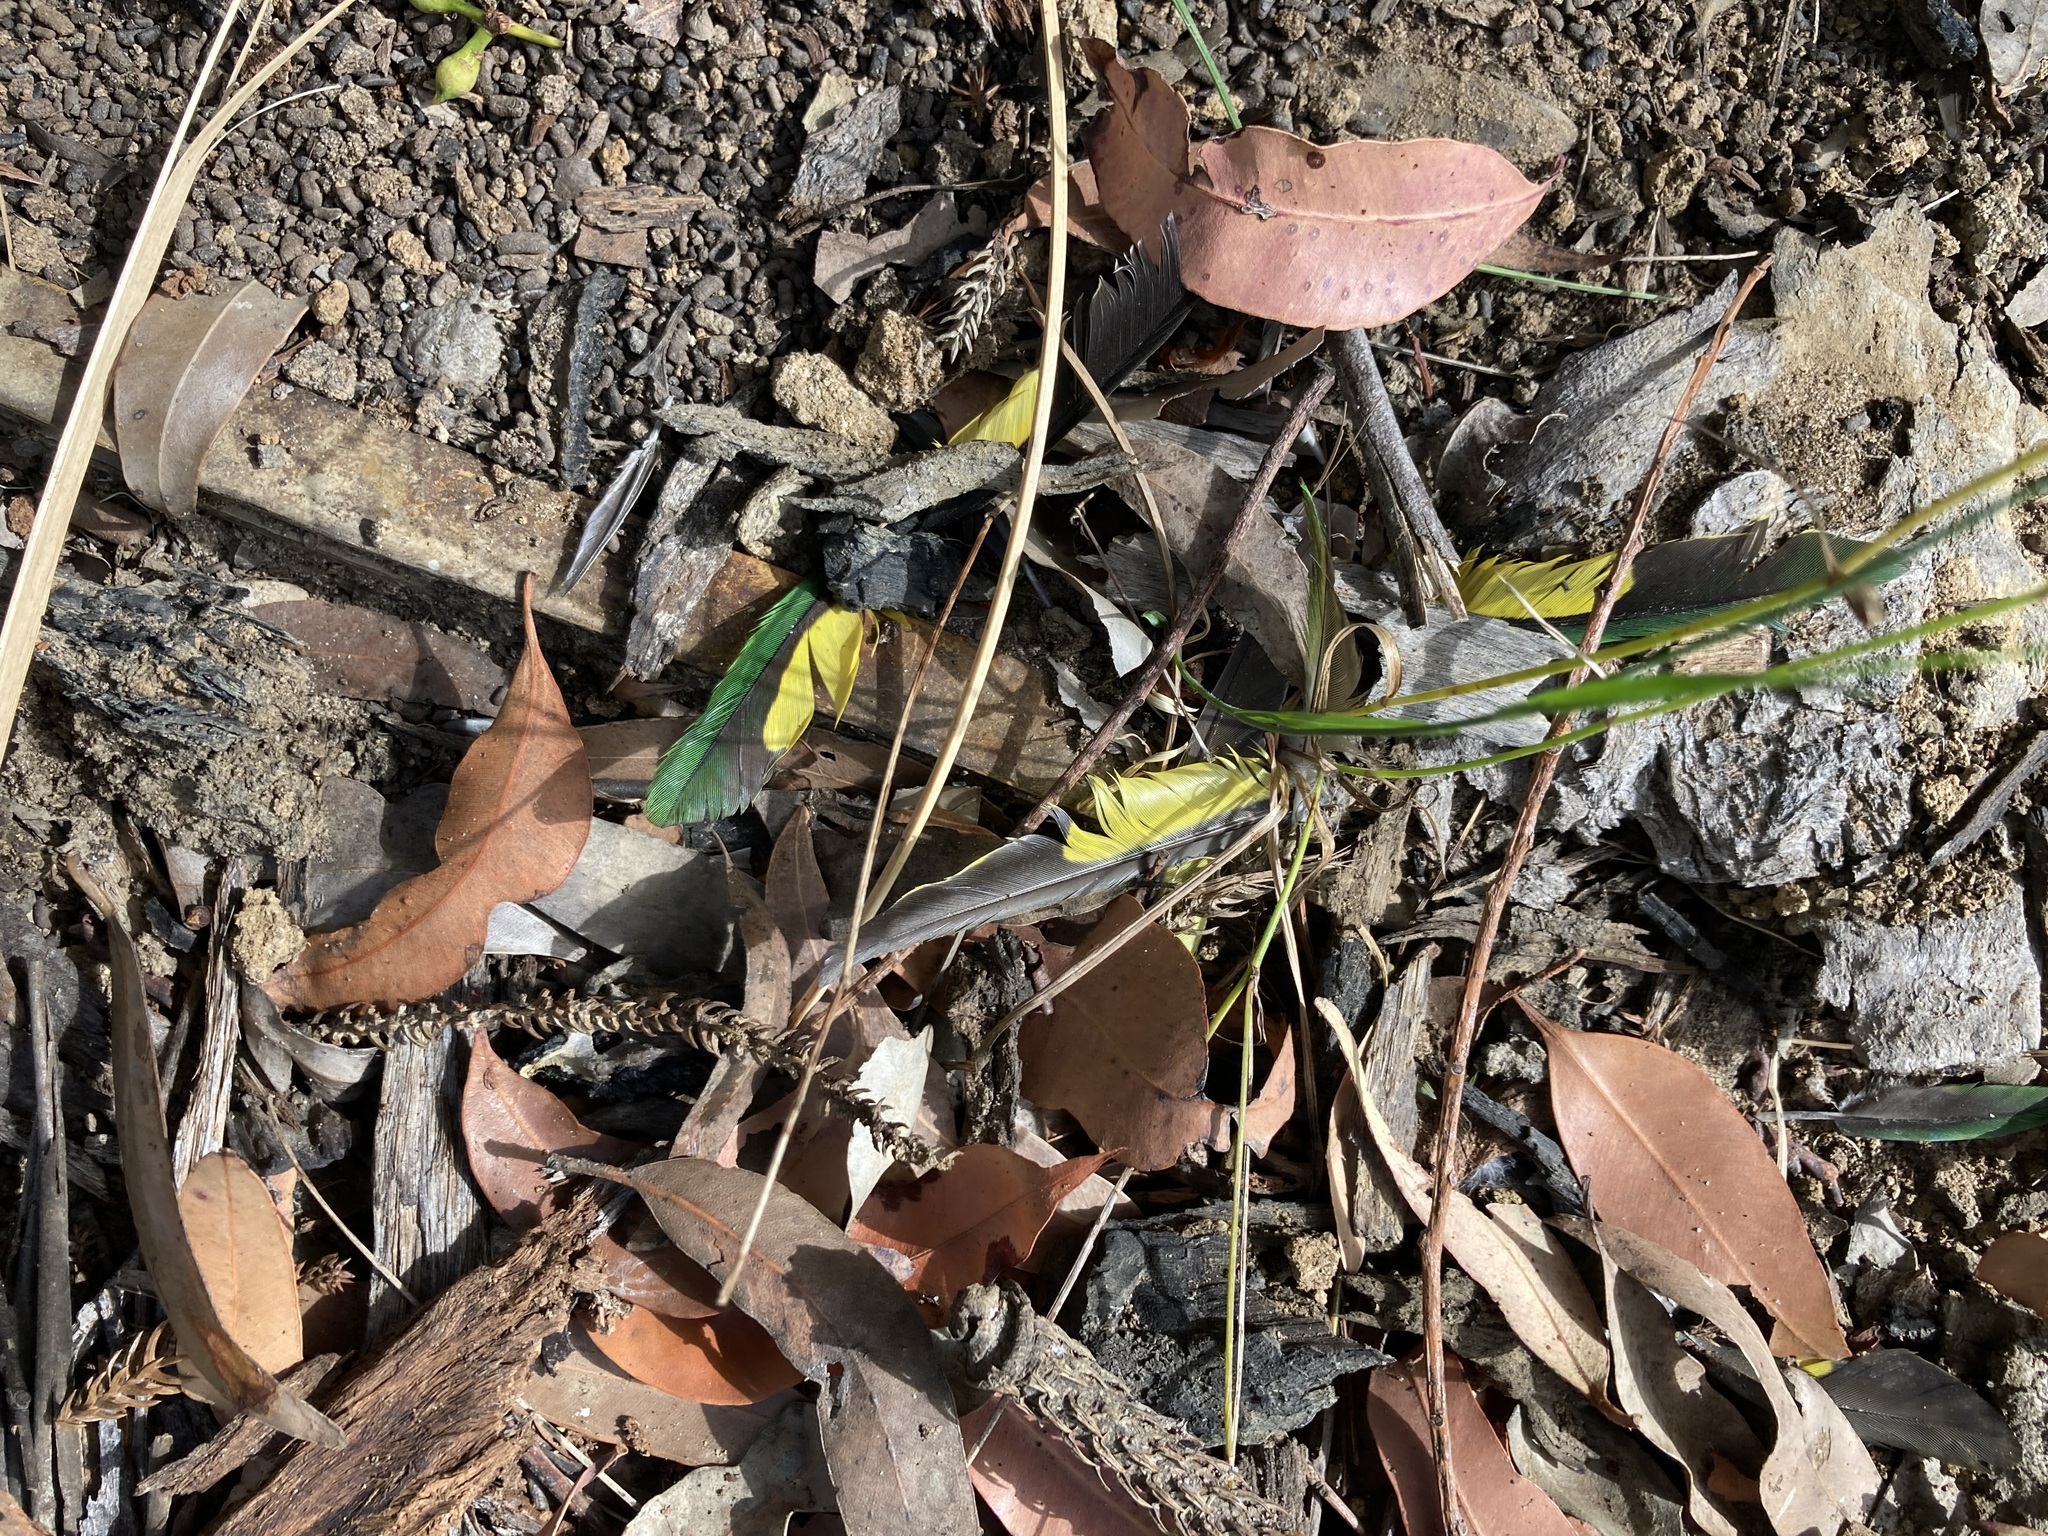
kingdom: Animalia
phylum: Chordata
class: Aves
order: Psittaciformes
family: Psittacidae
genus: Trichoglossus
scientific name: Trichoglossus haematodus
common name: Coconut lorikeet
